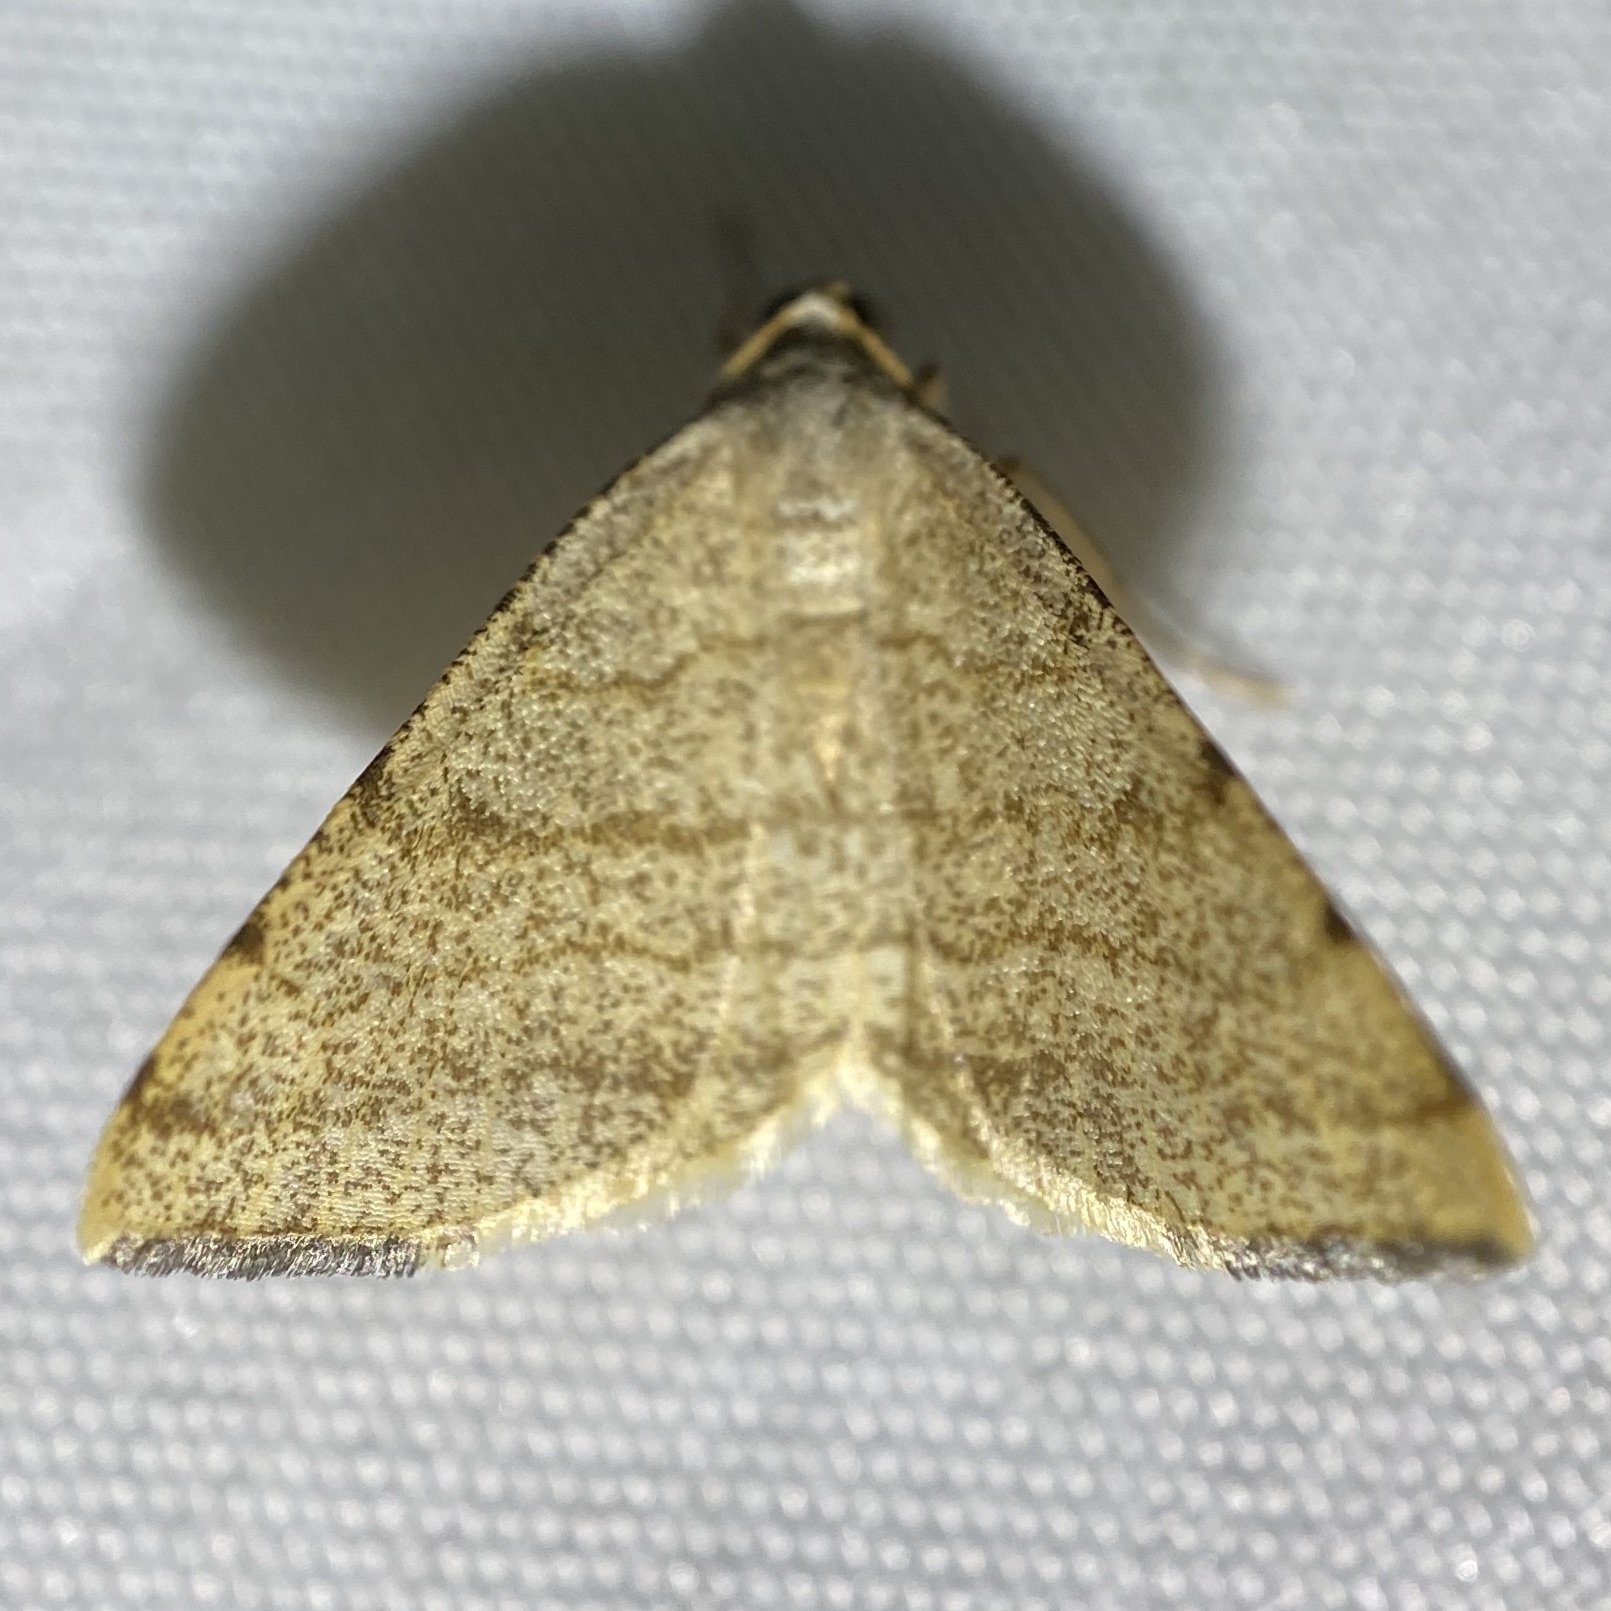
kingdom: Animalia
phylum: Arthropoda
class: Insecta
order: Lepidoptera
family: Geometridae
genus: Macaria
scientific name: Macaria octolineata
